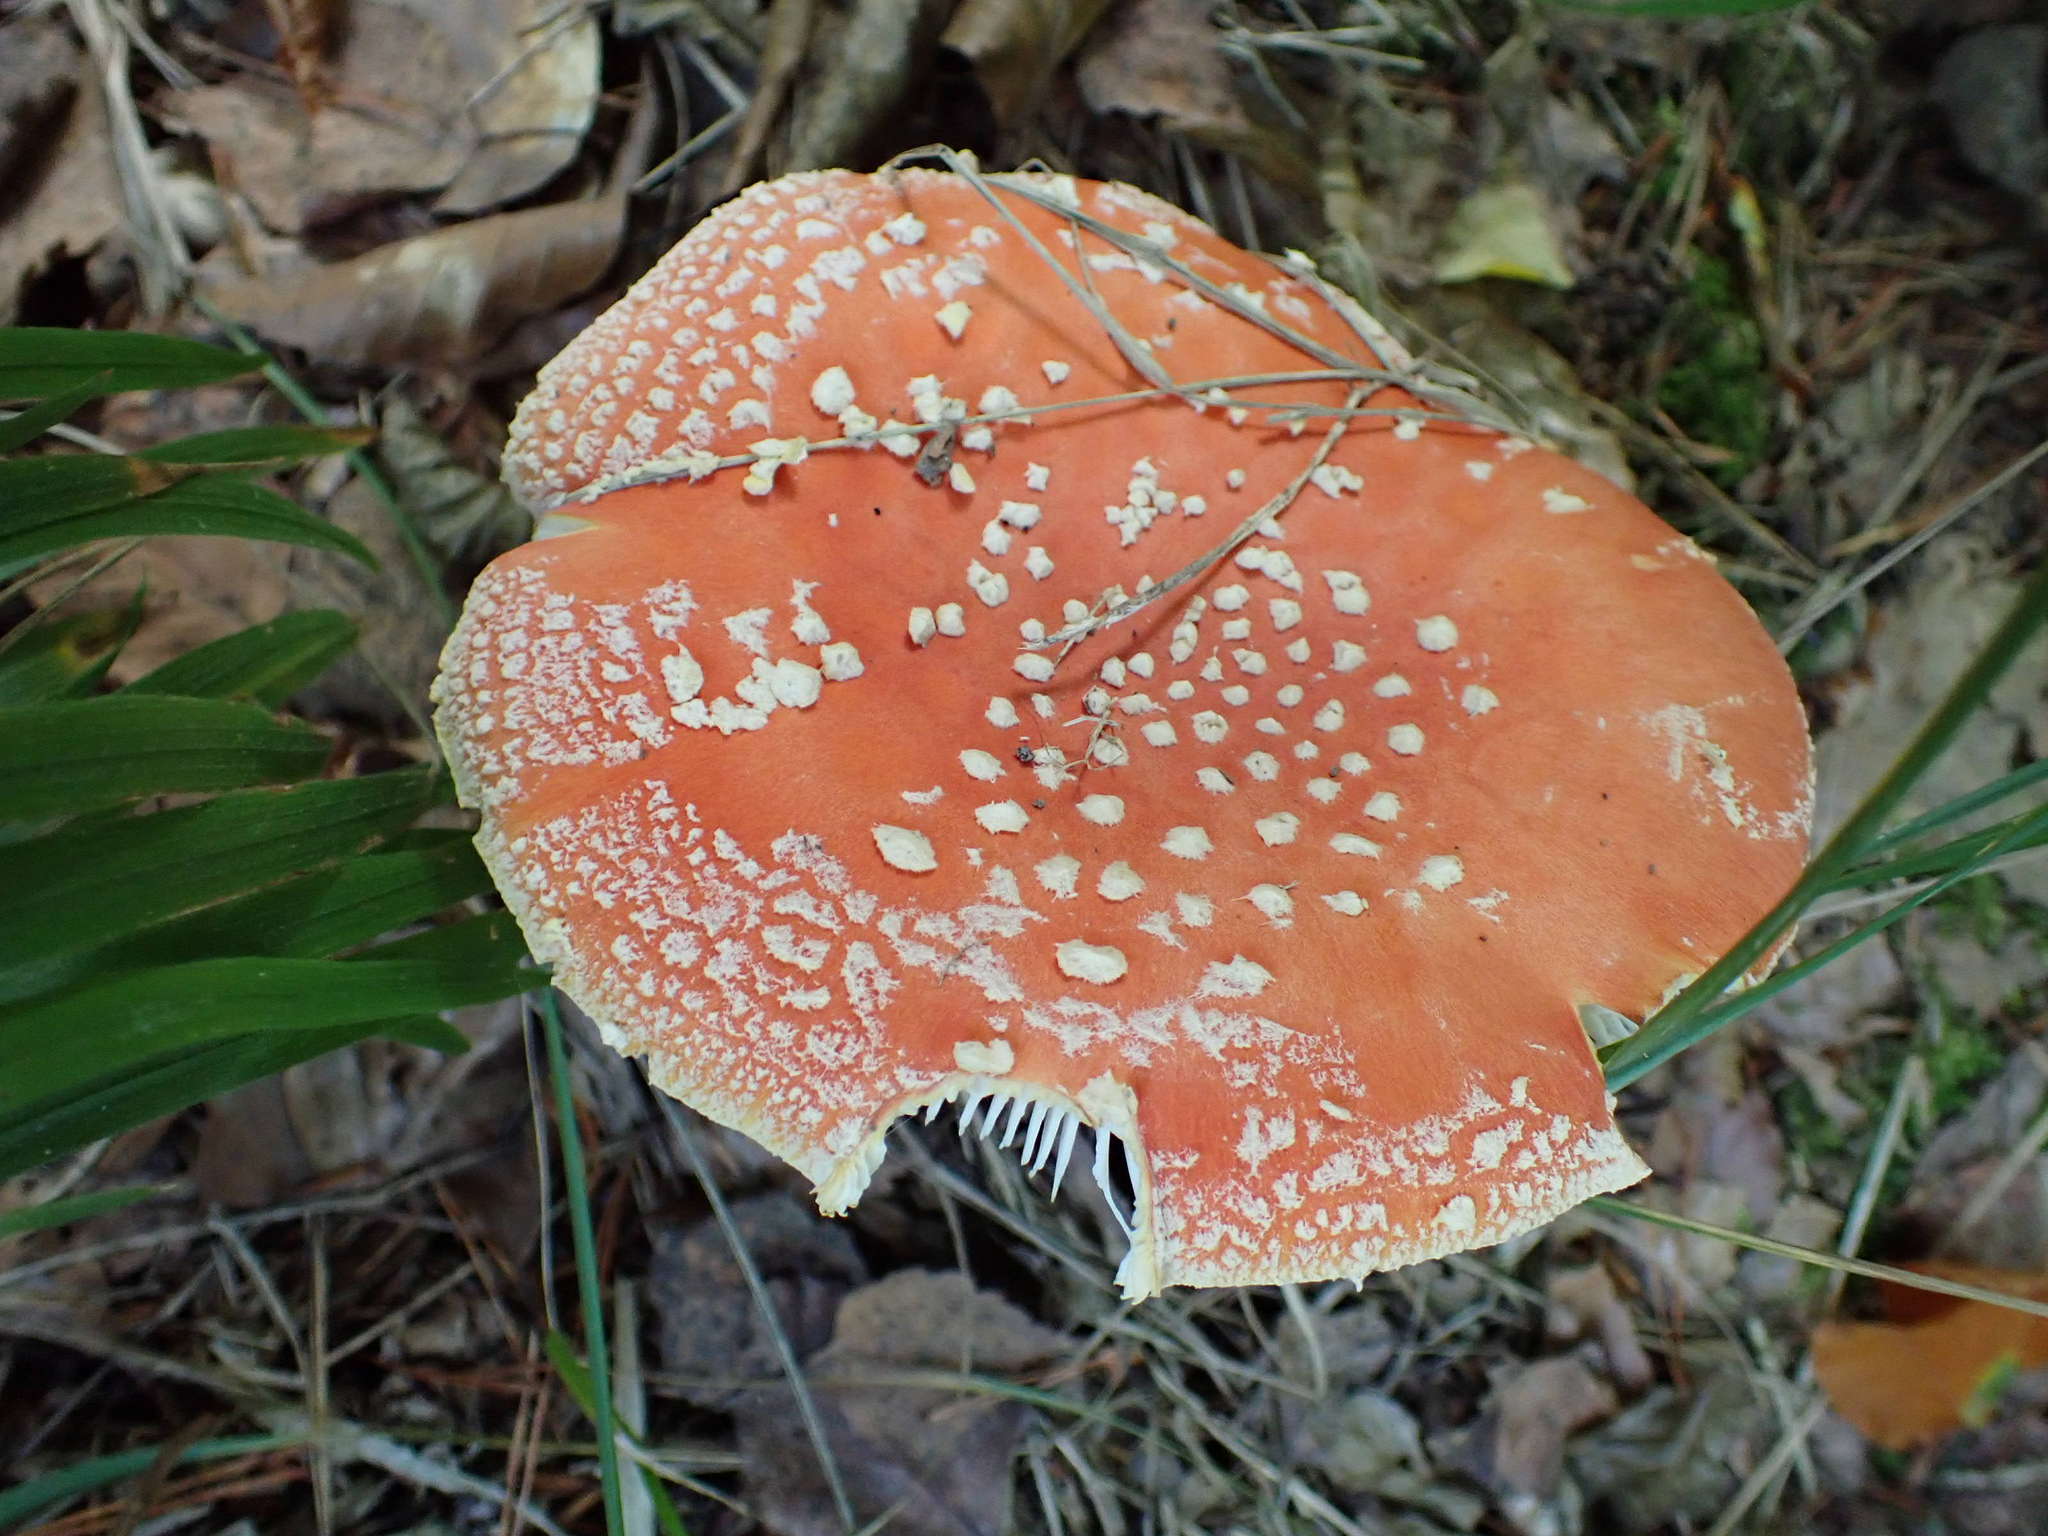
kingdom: Fungi
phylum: Basidiomycota
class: Agaricomycetes
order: Agaricales
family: Amanitaceae
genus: Amanita
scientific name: Amanita muscaria
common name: Fly agaric
